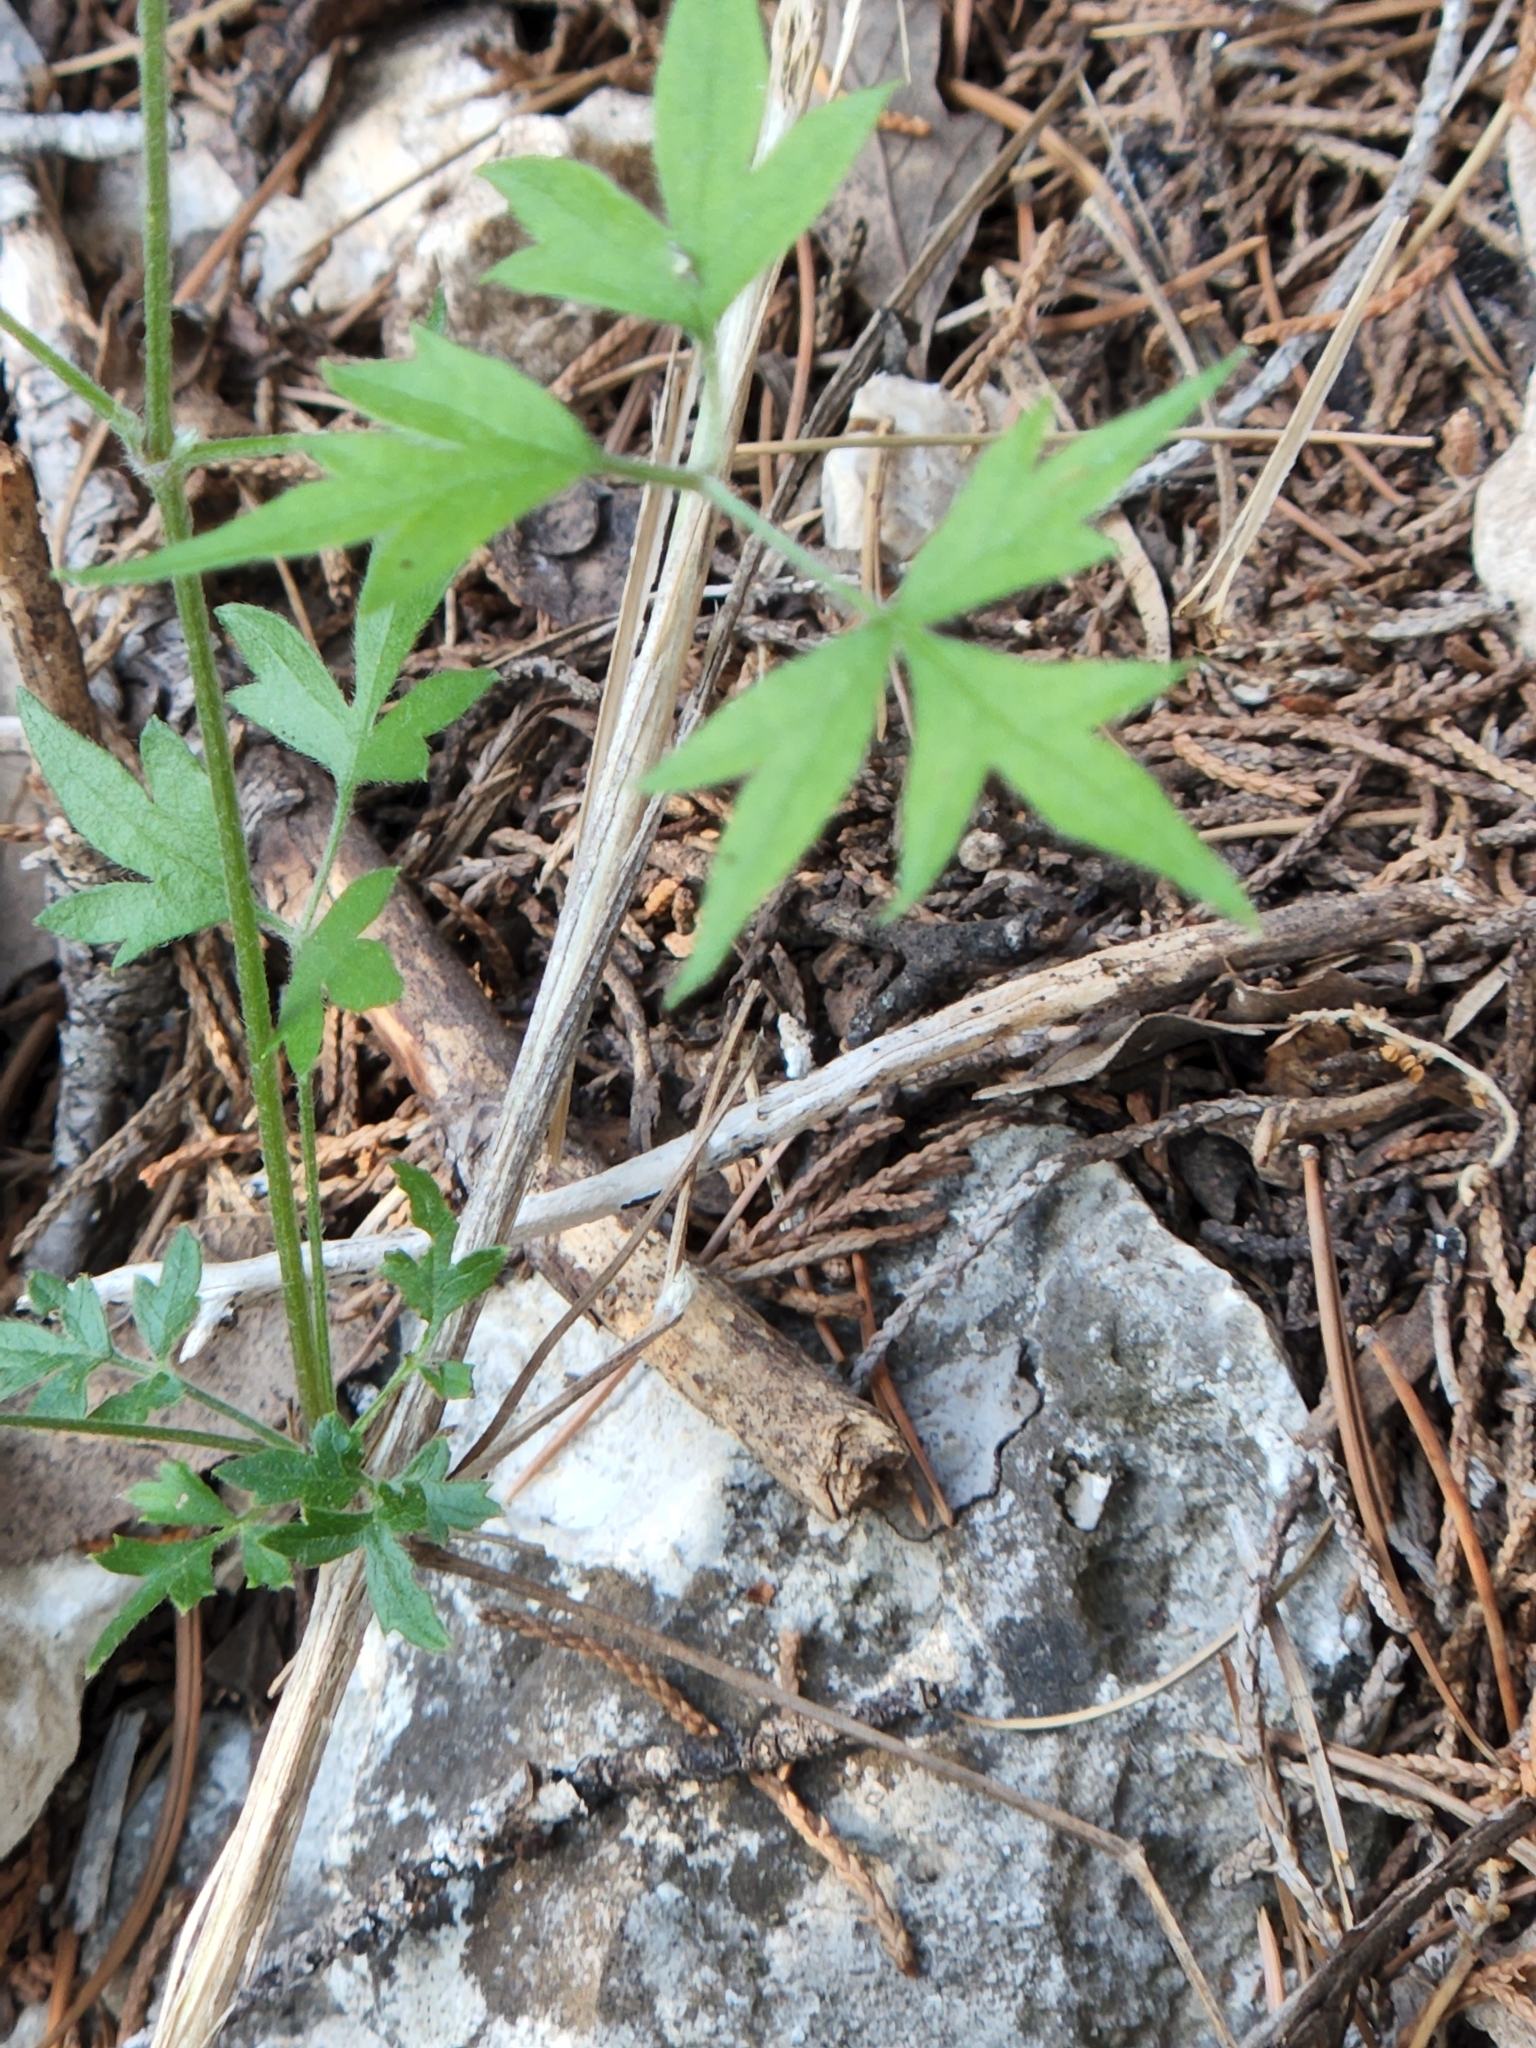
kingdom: Plantae
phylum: Tracheophyta
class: Magnoliopsida
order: Ranunculales
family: Ranunculaceae
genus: Clematis
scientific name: Clematis drummondii
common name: Texas virgin's bower
